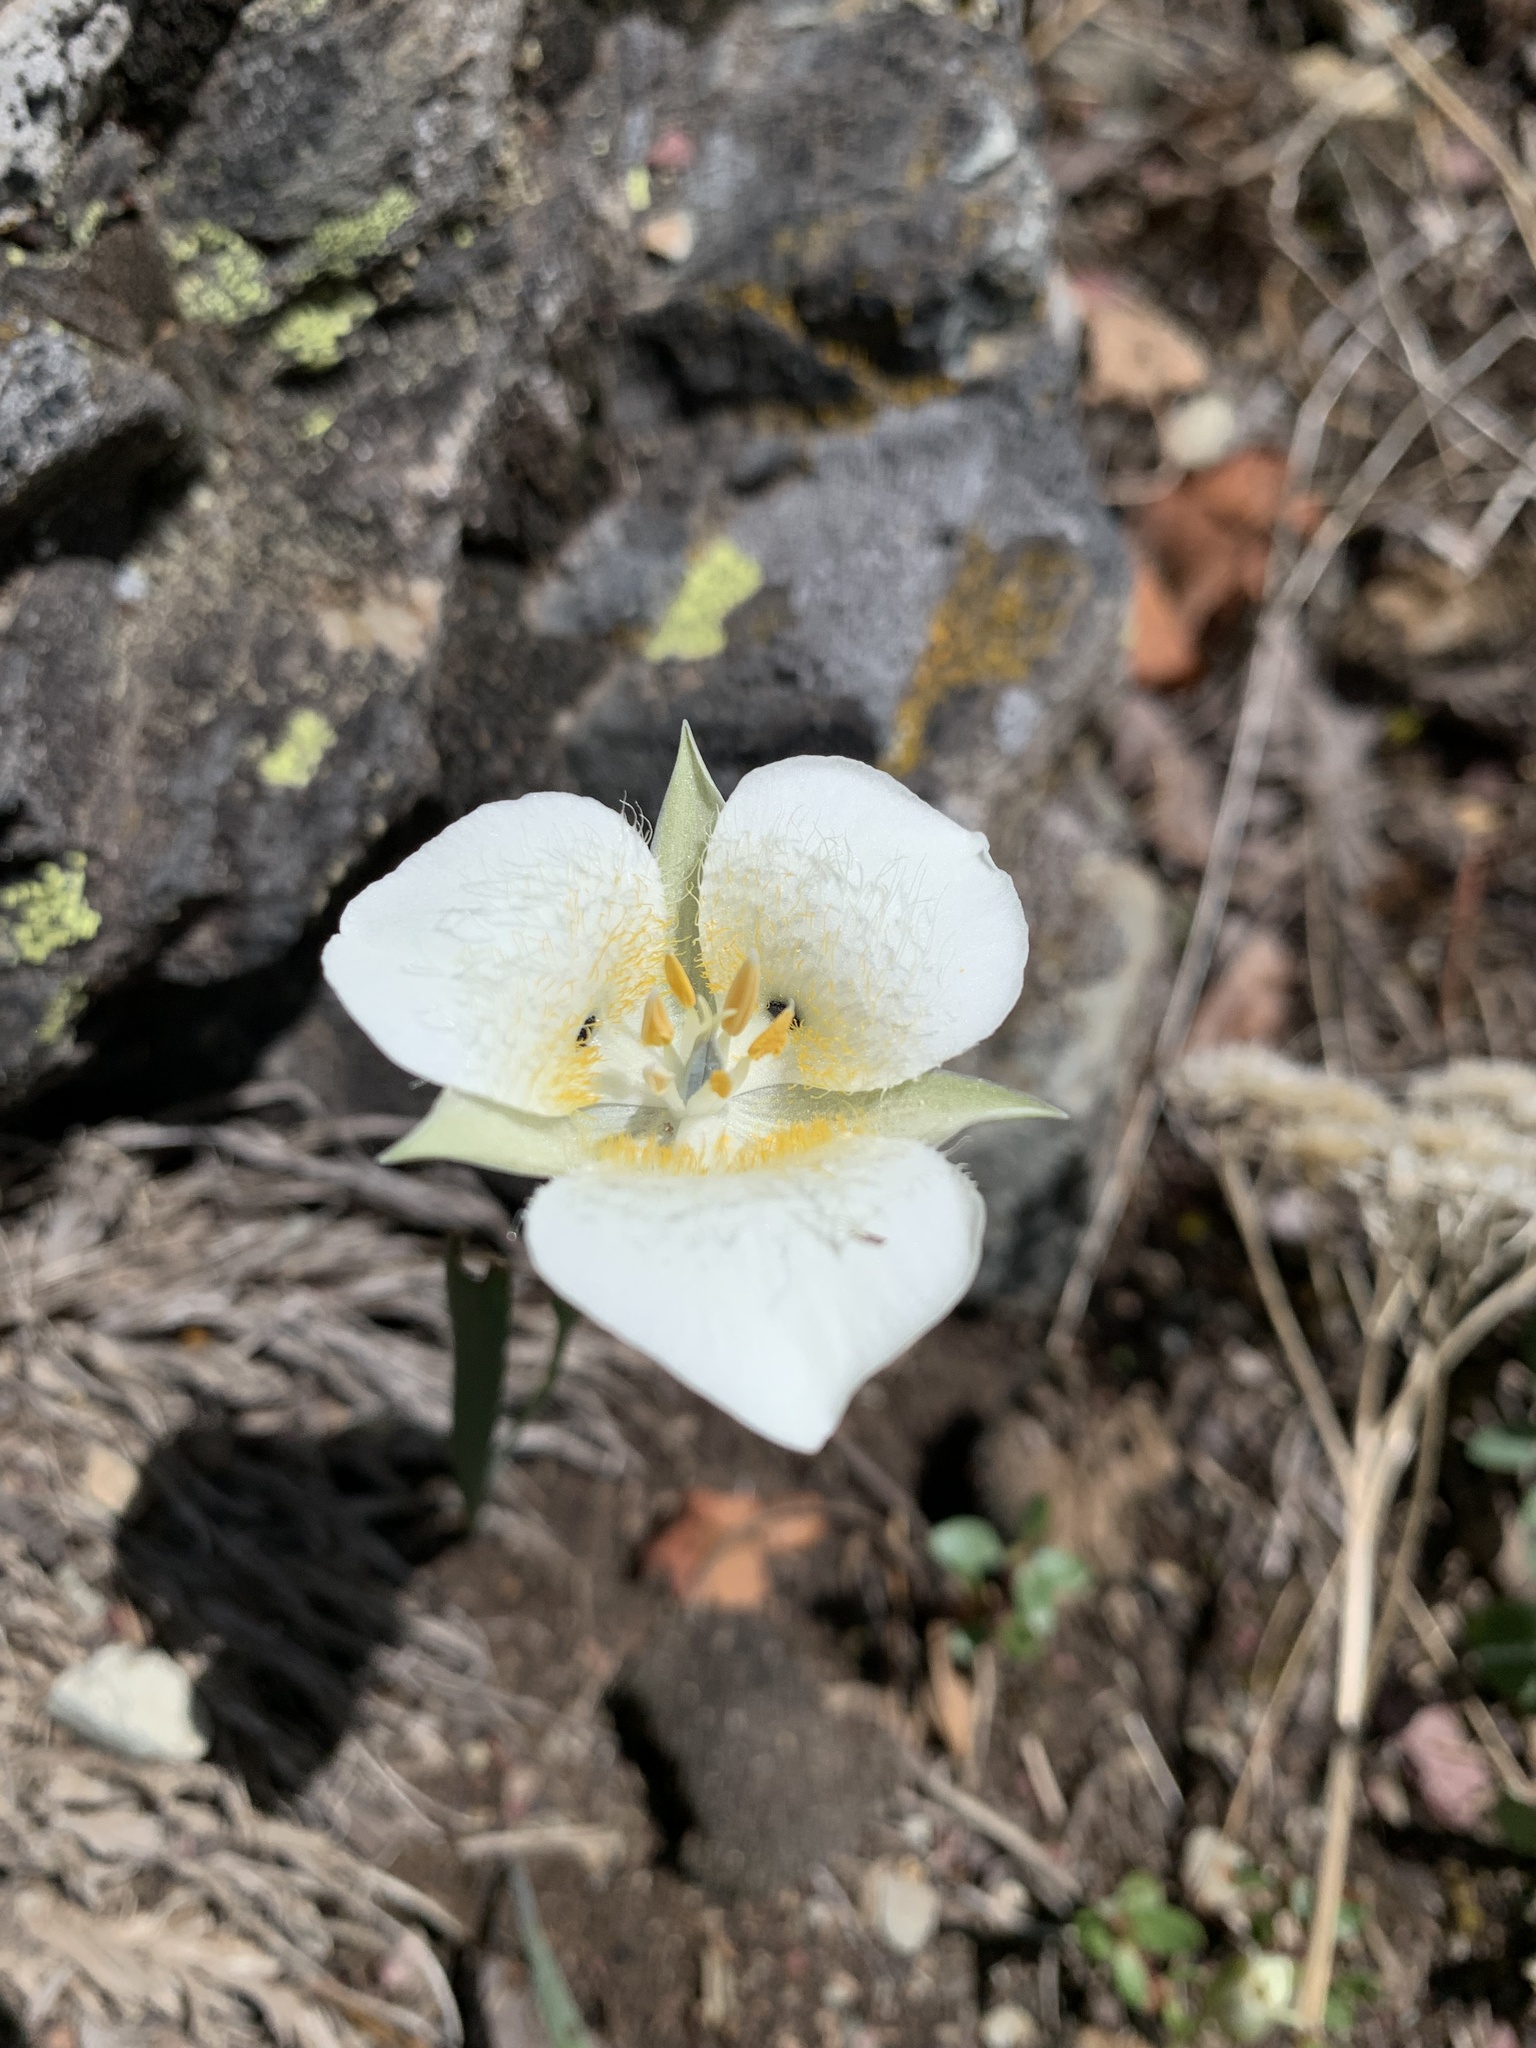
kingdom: Plantae
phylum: Tracheophyta
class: Liliopsida
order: Liliales
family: Liliaceae
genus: Calochortus
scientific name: Calochortus apiculatus
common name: Baker's mariposa lily
